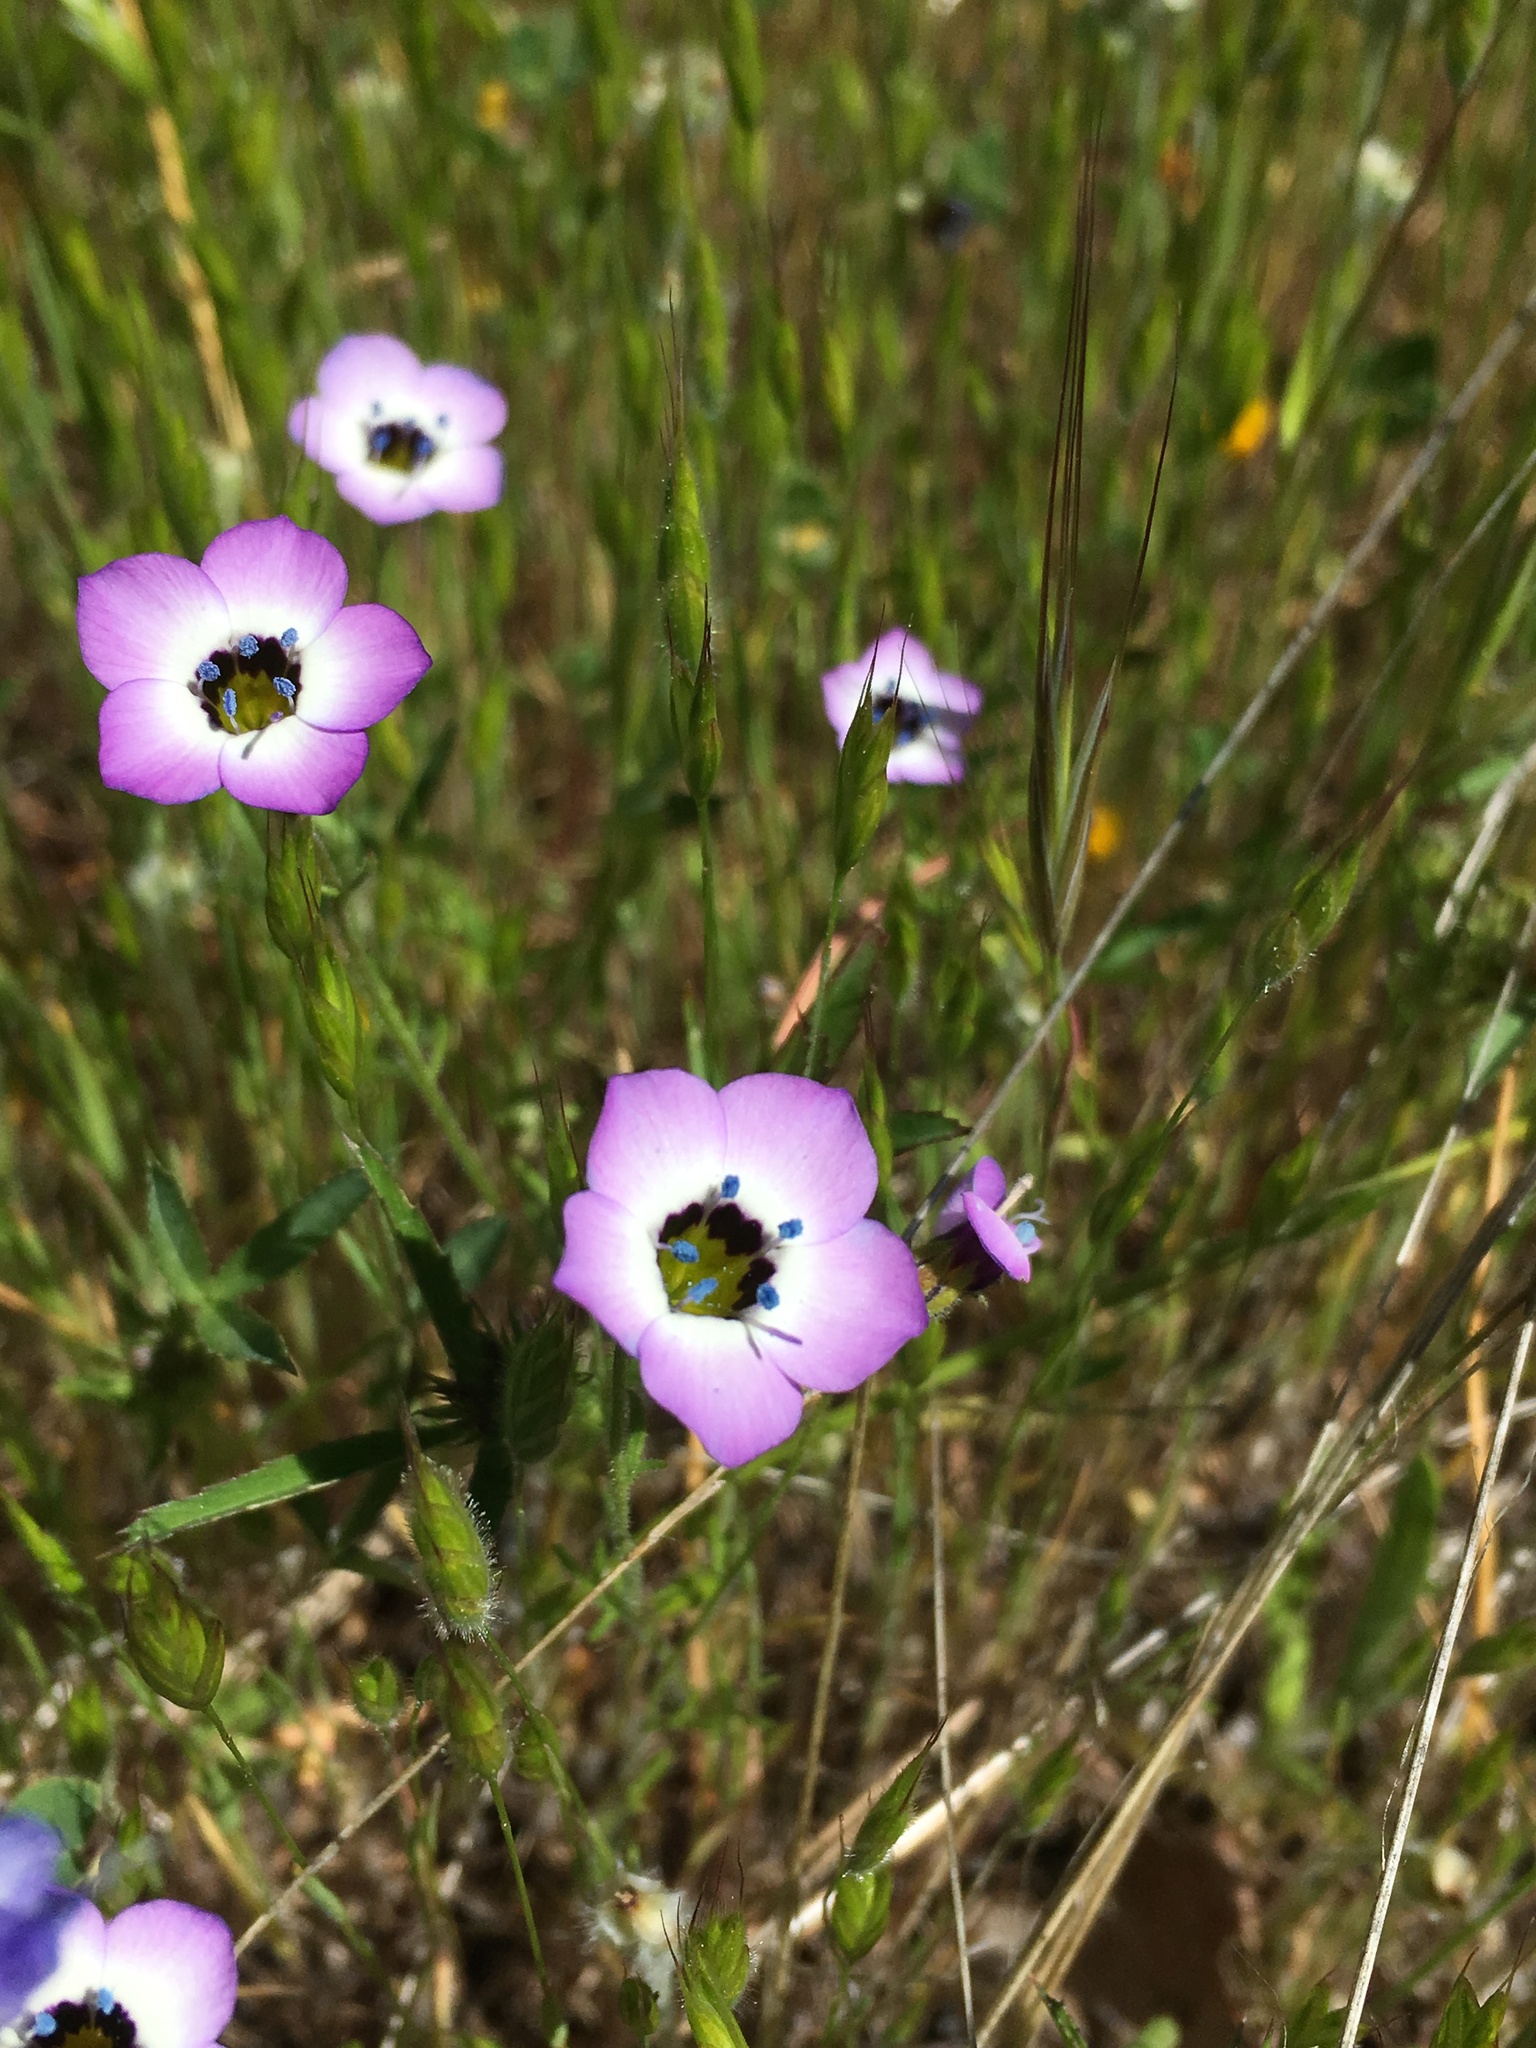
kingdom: Plantae
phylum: Tracheophyta
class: Magnoliopsida
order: Ericales
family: Polemoniaceae
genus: Gilia
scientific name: Gilia tricolor
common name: Bird's-eyes
